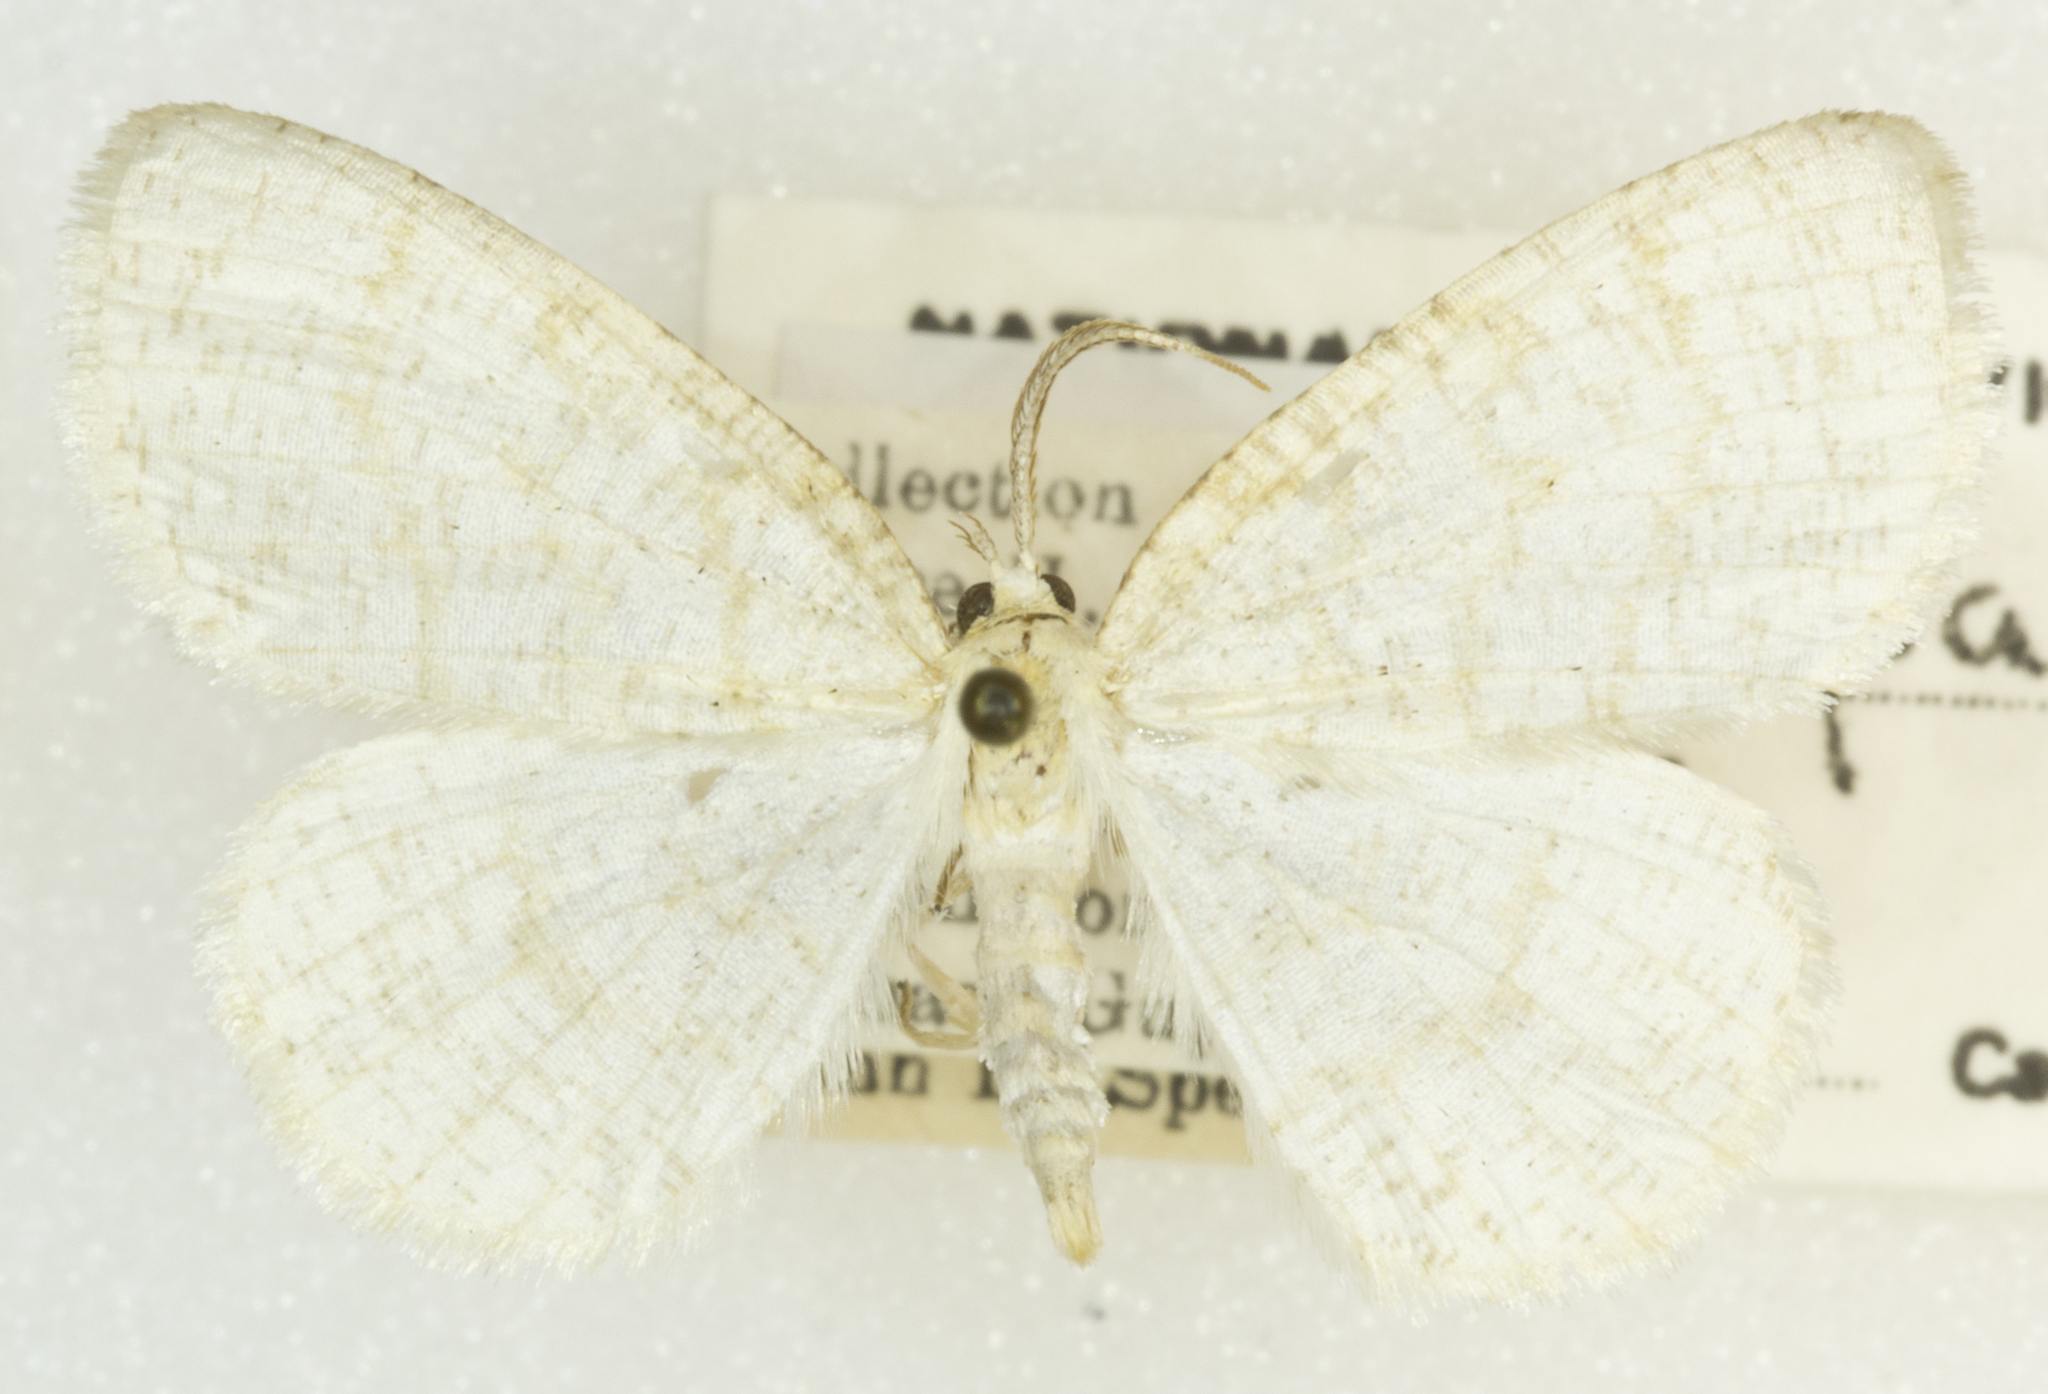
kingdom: Animalia
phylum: Arthropoda
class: Insecta
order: Lepidoptera
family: Geometridae
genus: Cabera
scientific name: Cabera erythemaria
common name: Yellow-dusted cream moth
